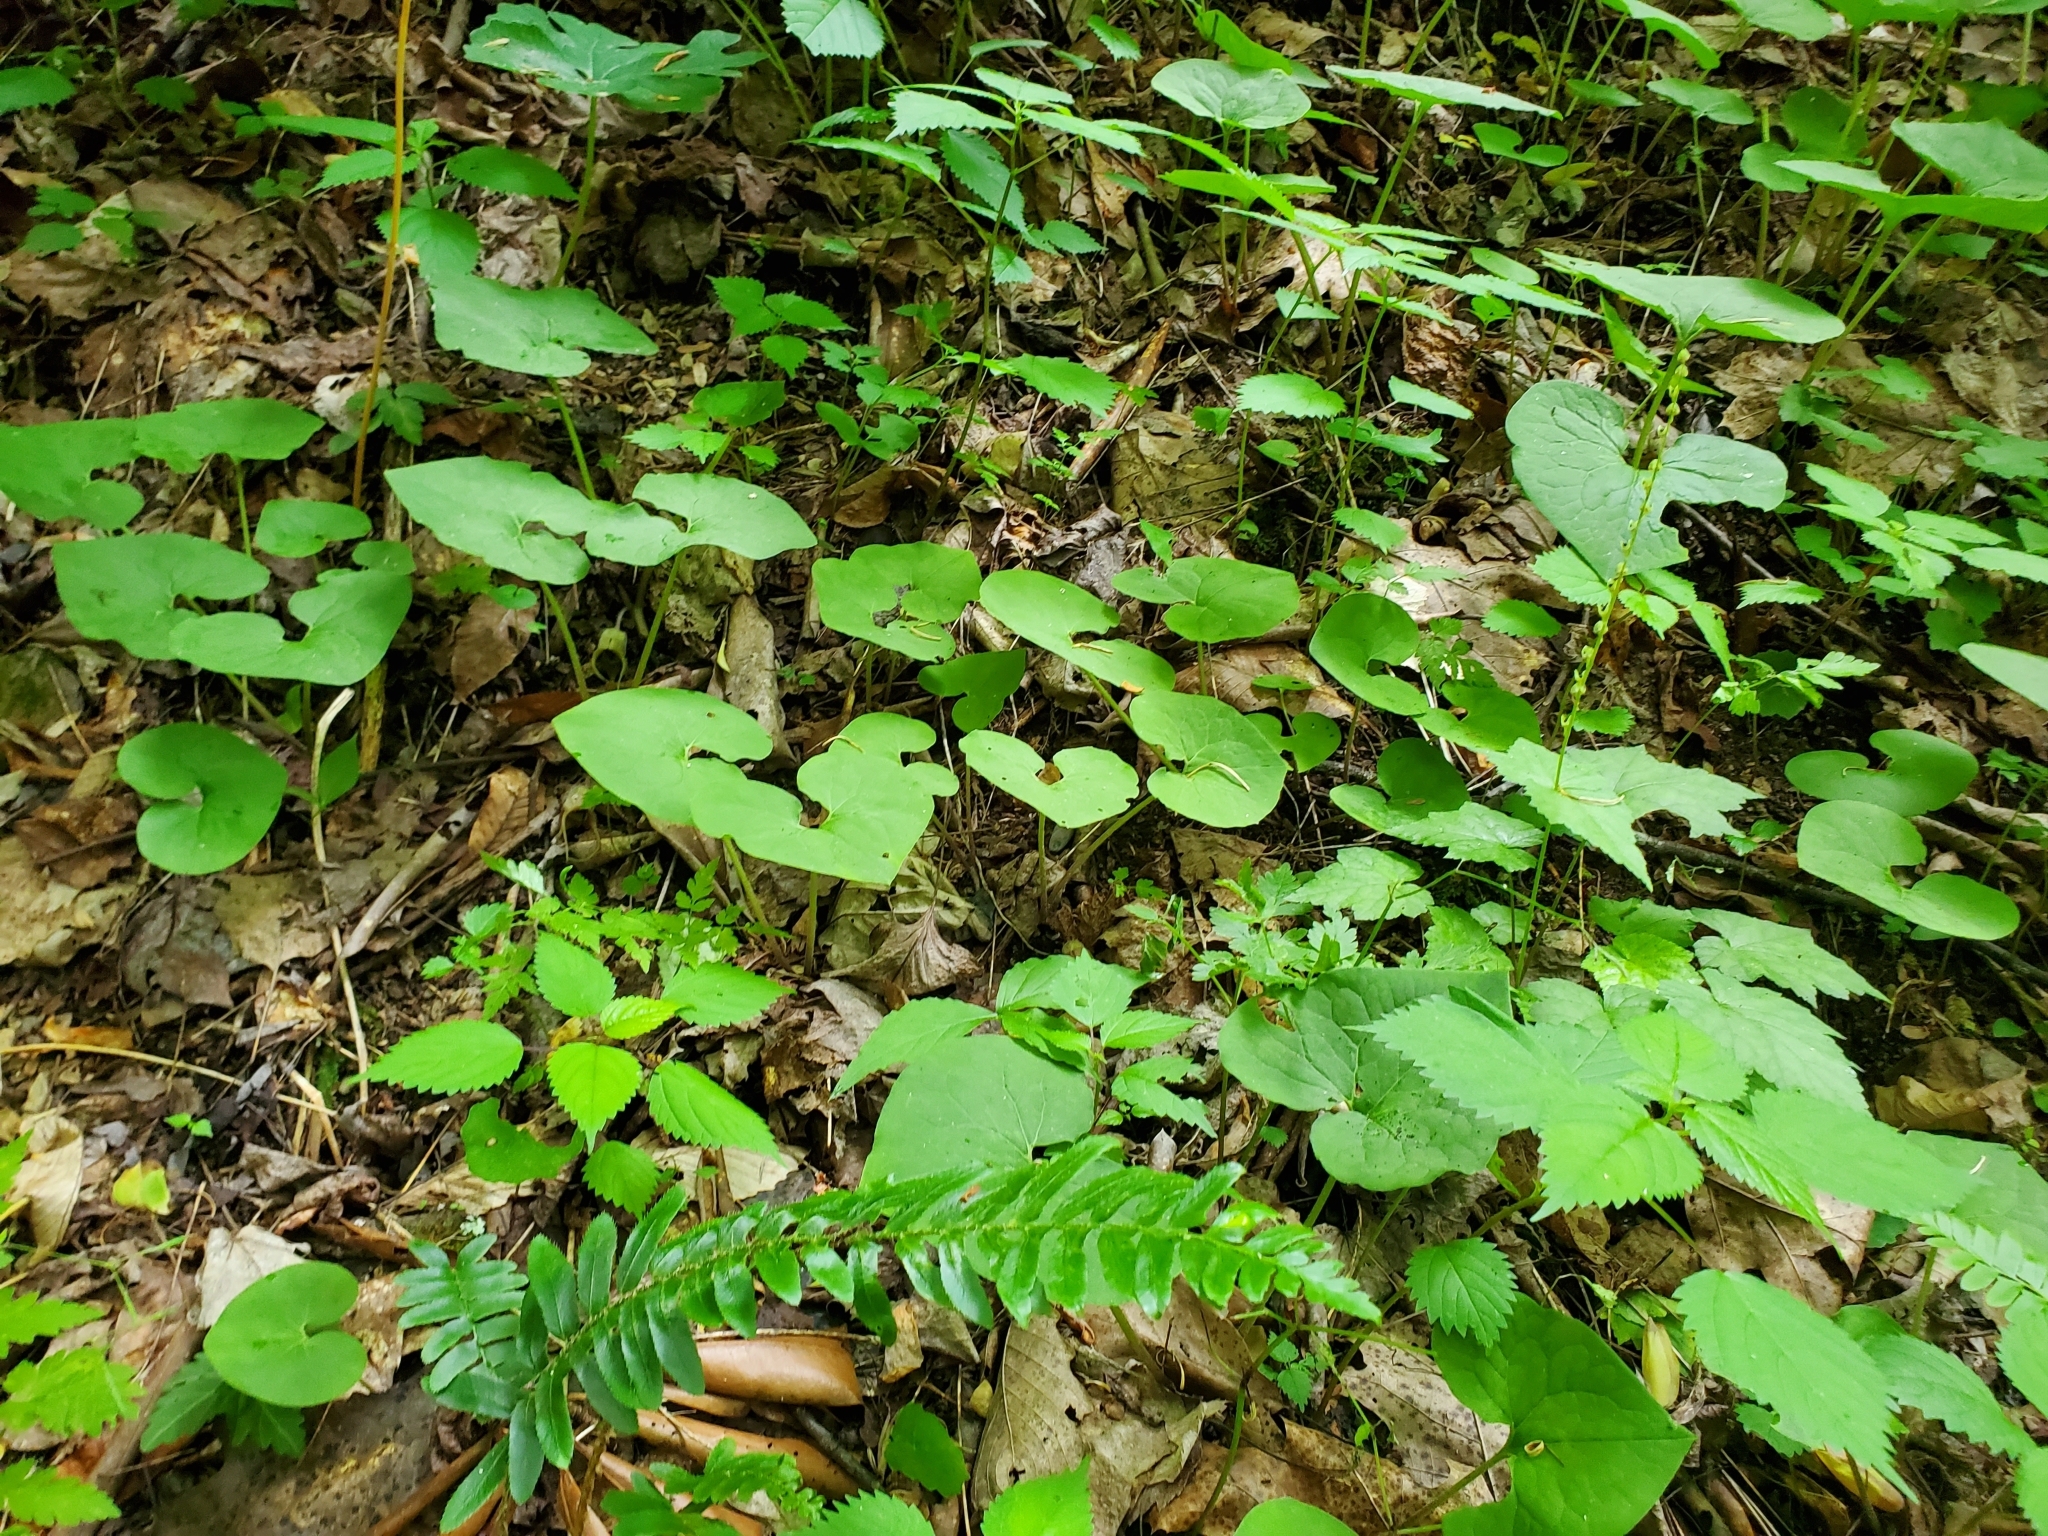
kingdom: Plantae
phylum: Tracheophyta
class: Magnoliopsida
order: Piperales
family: Aristolochiaceae
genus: Asarum
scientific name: Asarum canadense
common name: Wild ginger
